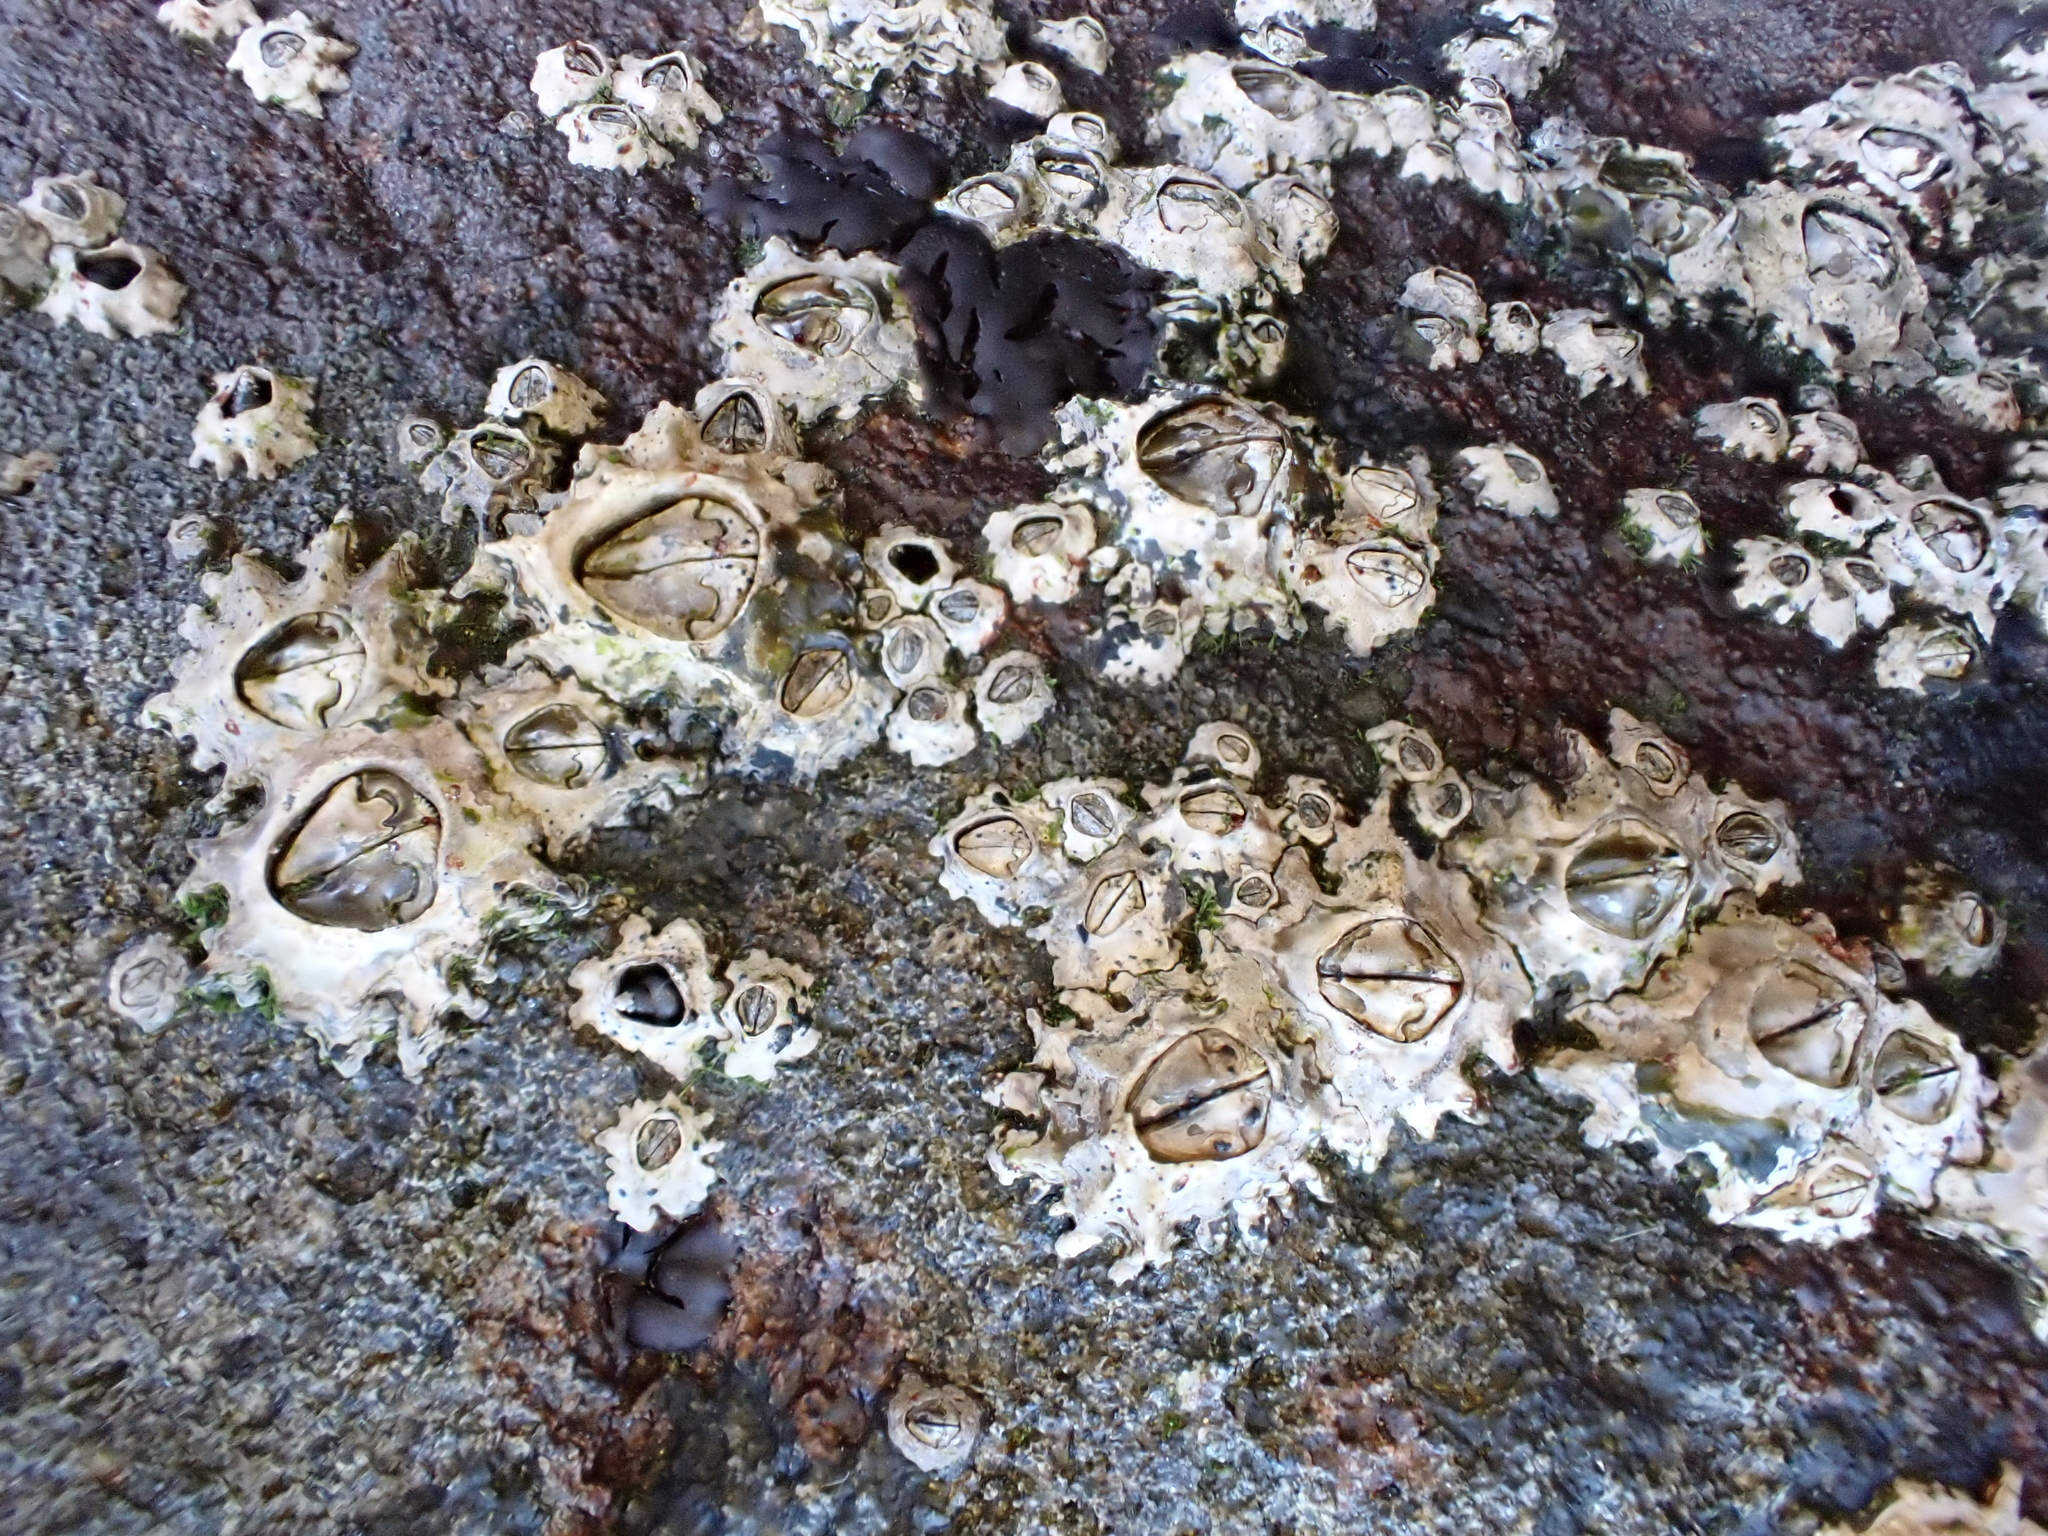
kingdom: Animalia
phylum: Arthropoda
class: Maxillopoda
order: Sessilia
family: Chthamalidae
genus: Chamaesipho
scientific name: Chamaesipho brunnea
